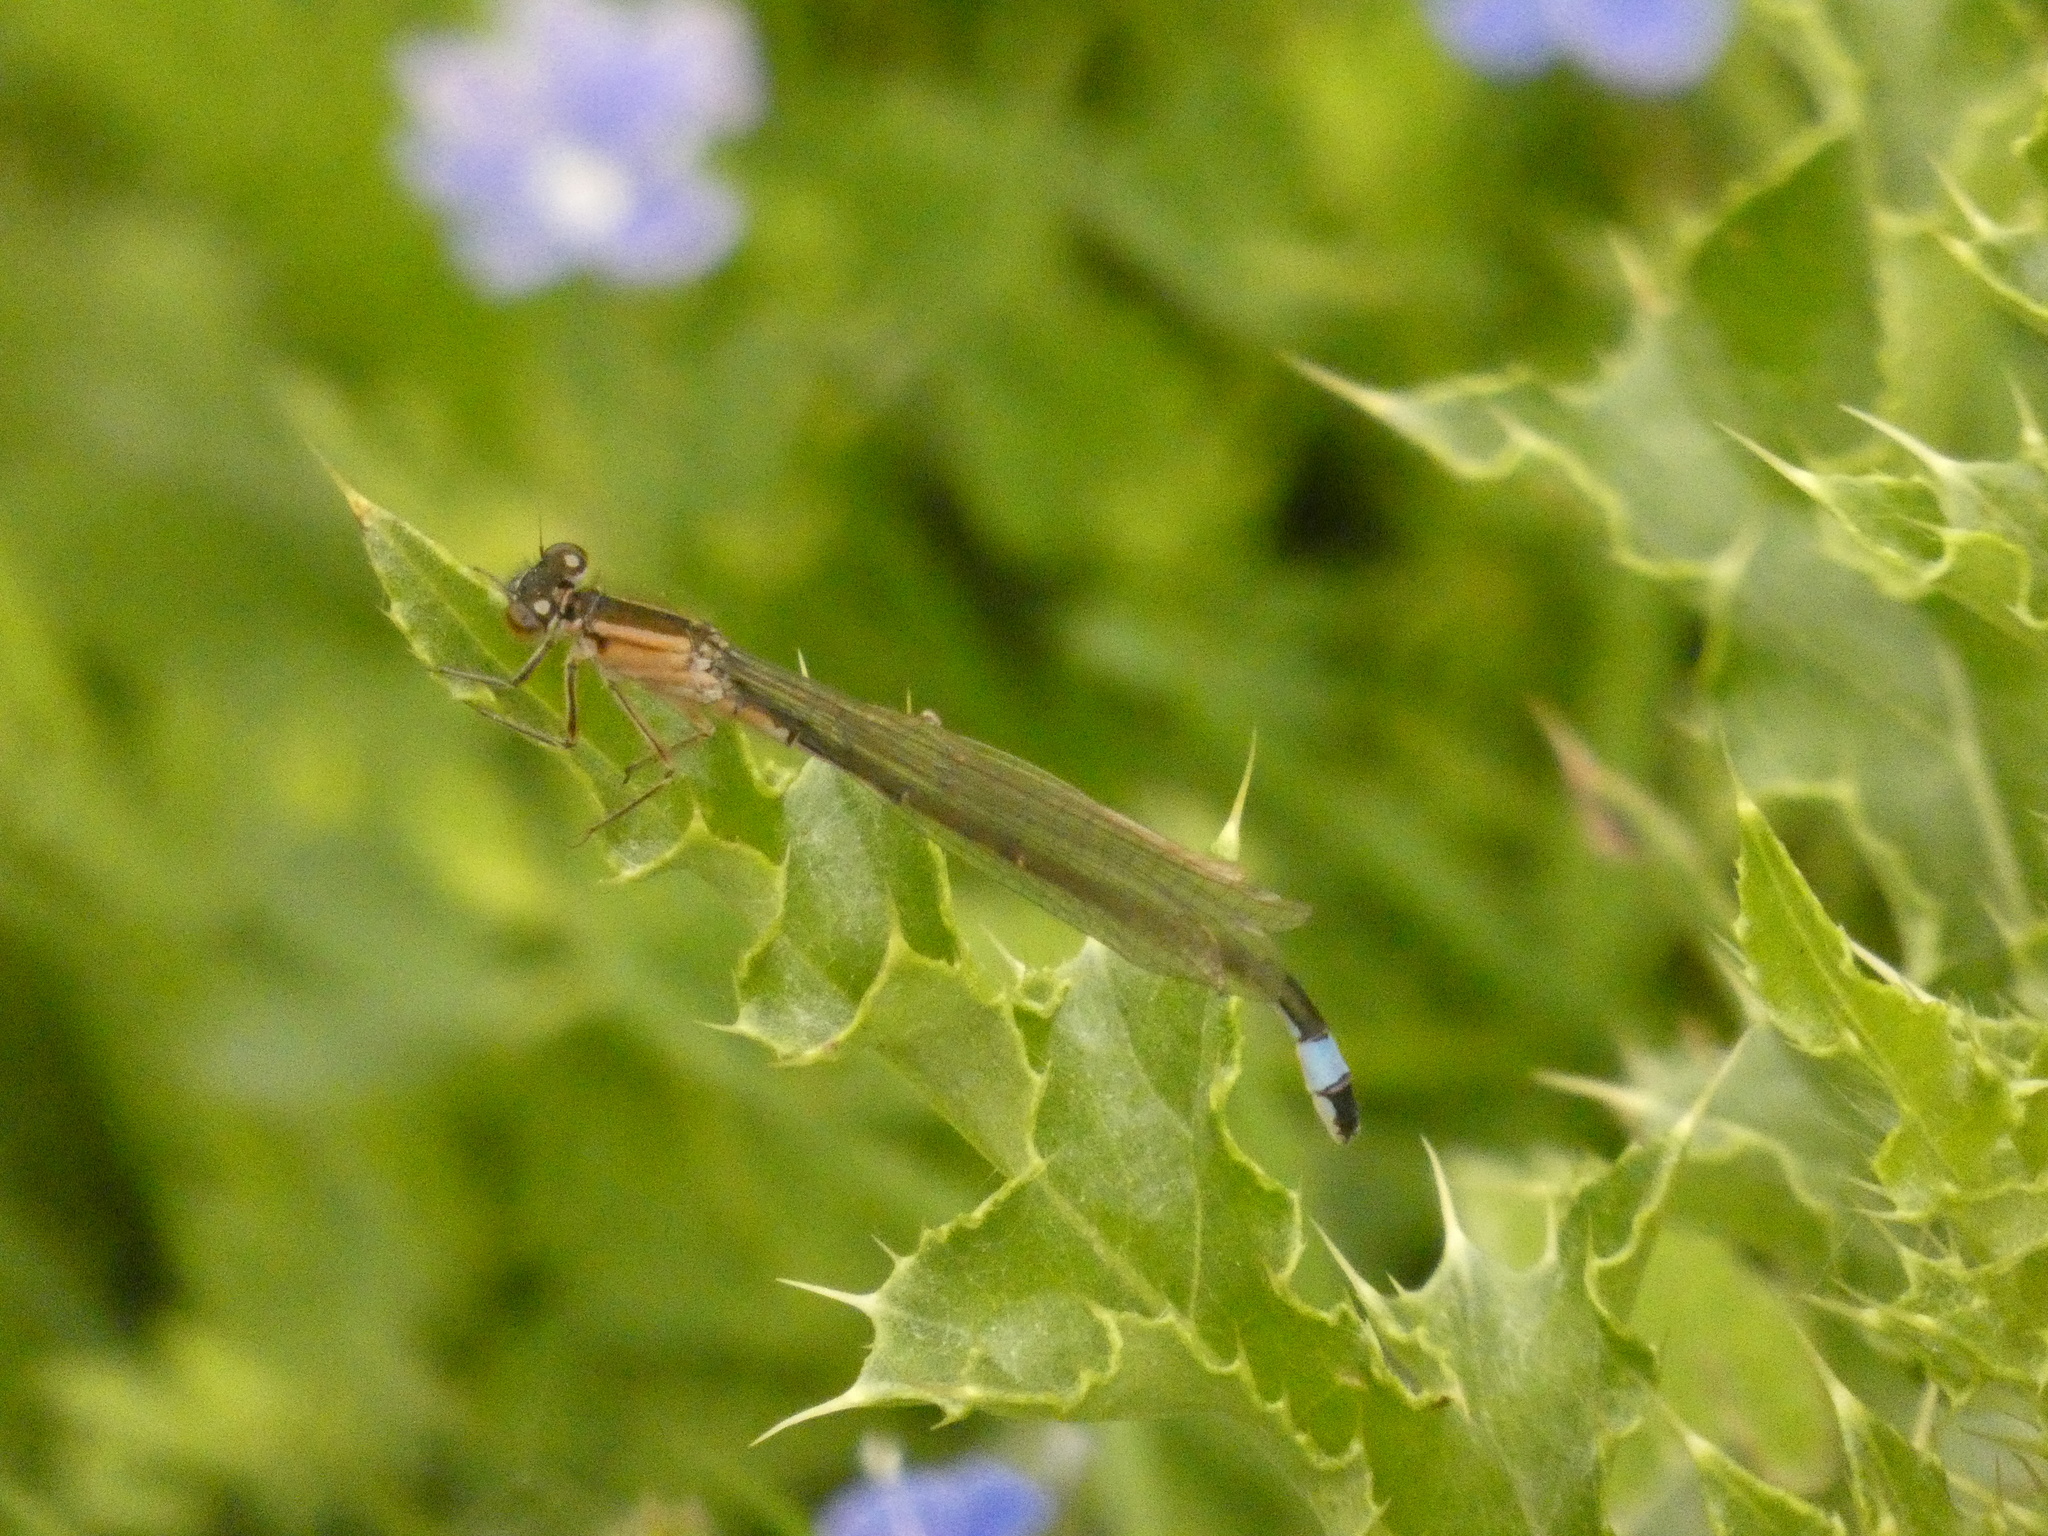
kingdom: Animalia
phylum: Arthropoda
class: Insecta
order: Odonata
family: Coenagrionidae
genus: Ischnura
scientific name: Ischnura elegans
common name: Blue-tailed damselfly
